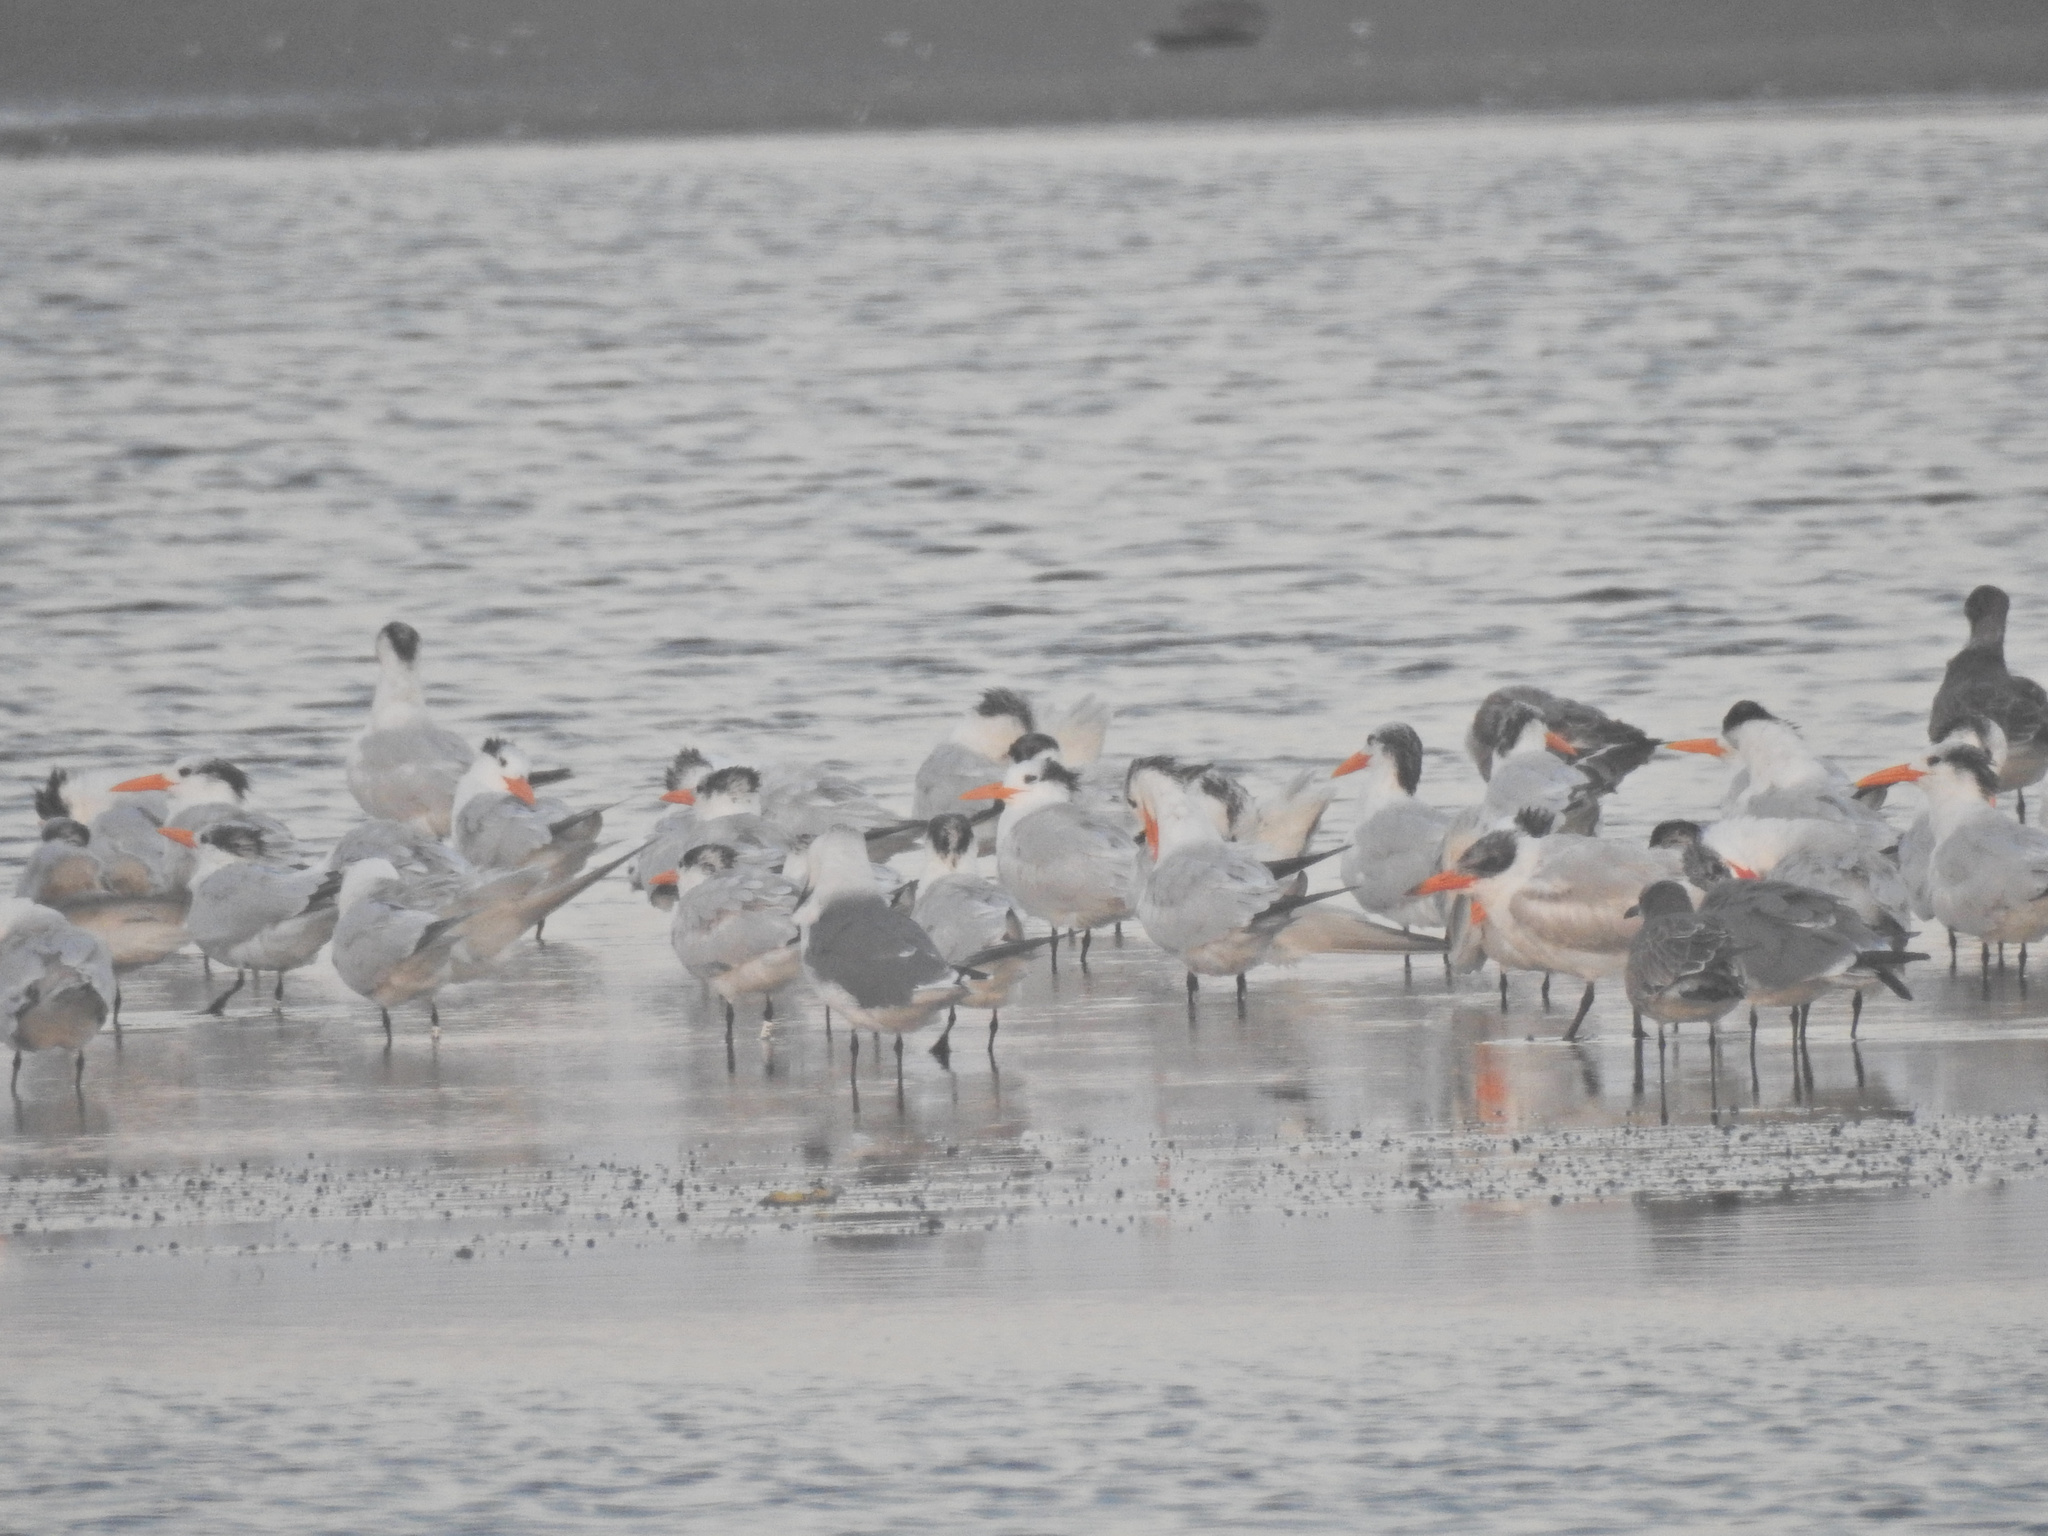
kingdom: Animalia
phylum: Chordata
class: Aves
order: Charadriiformes
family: Laridae
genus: Thalasseus
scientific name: Thalasseus maximus
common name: Royal tern
